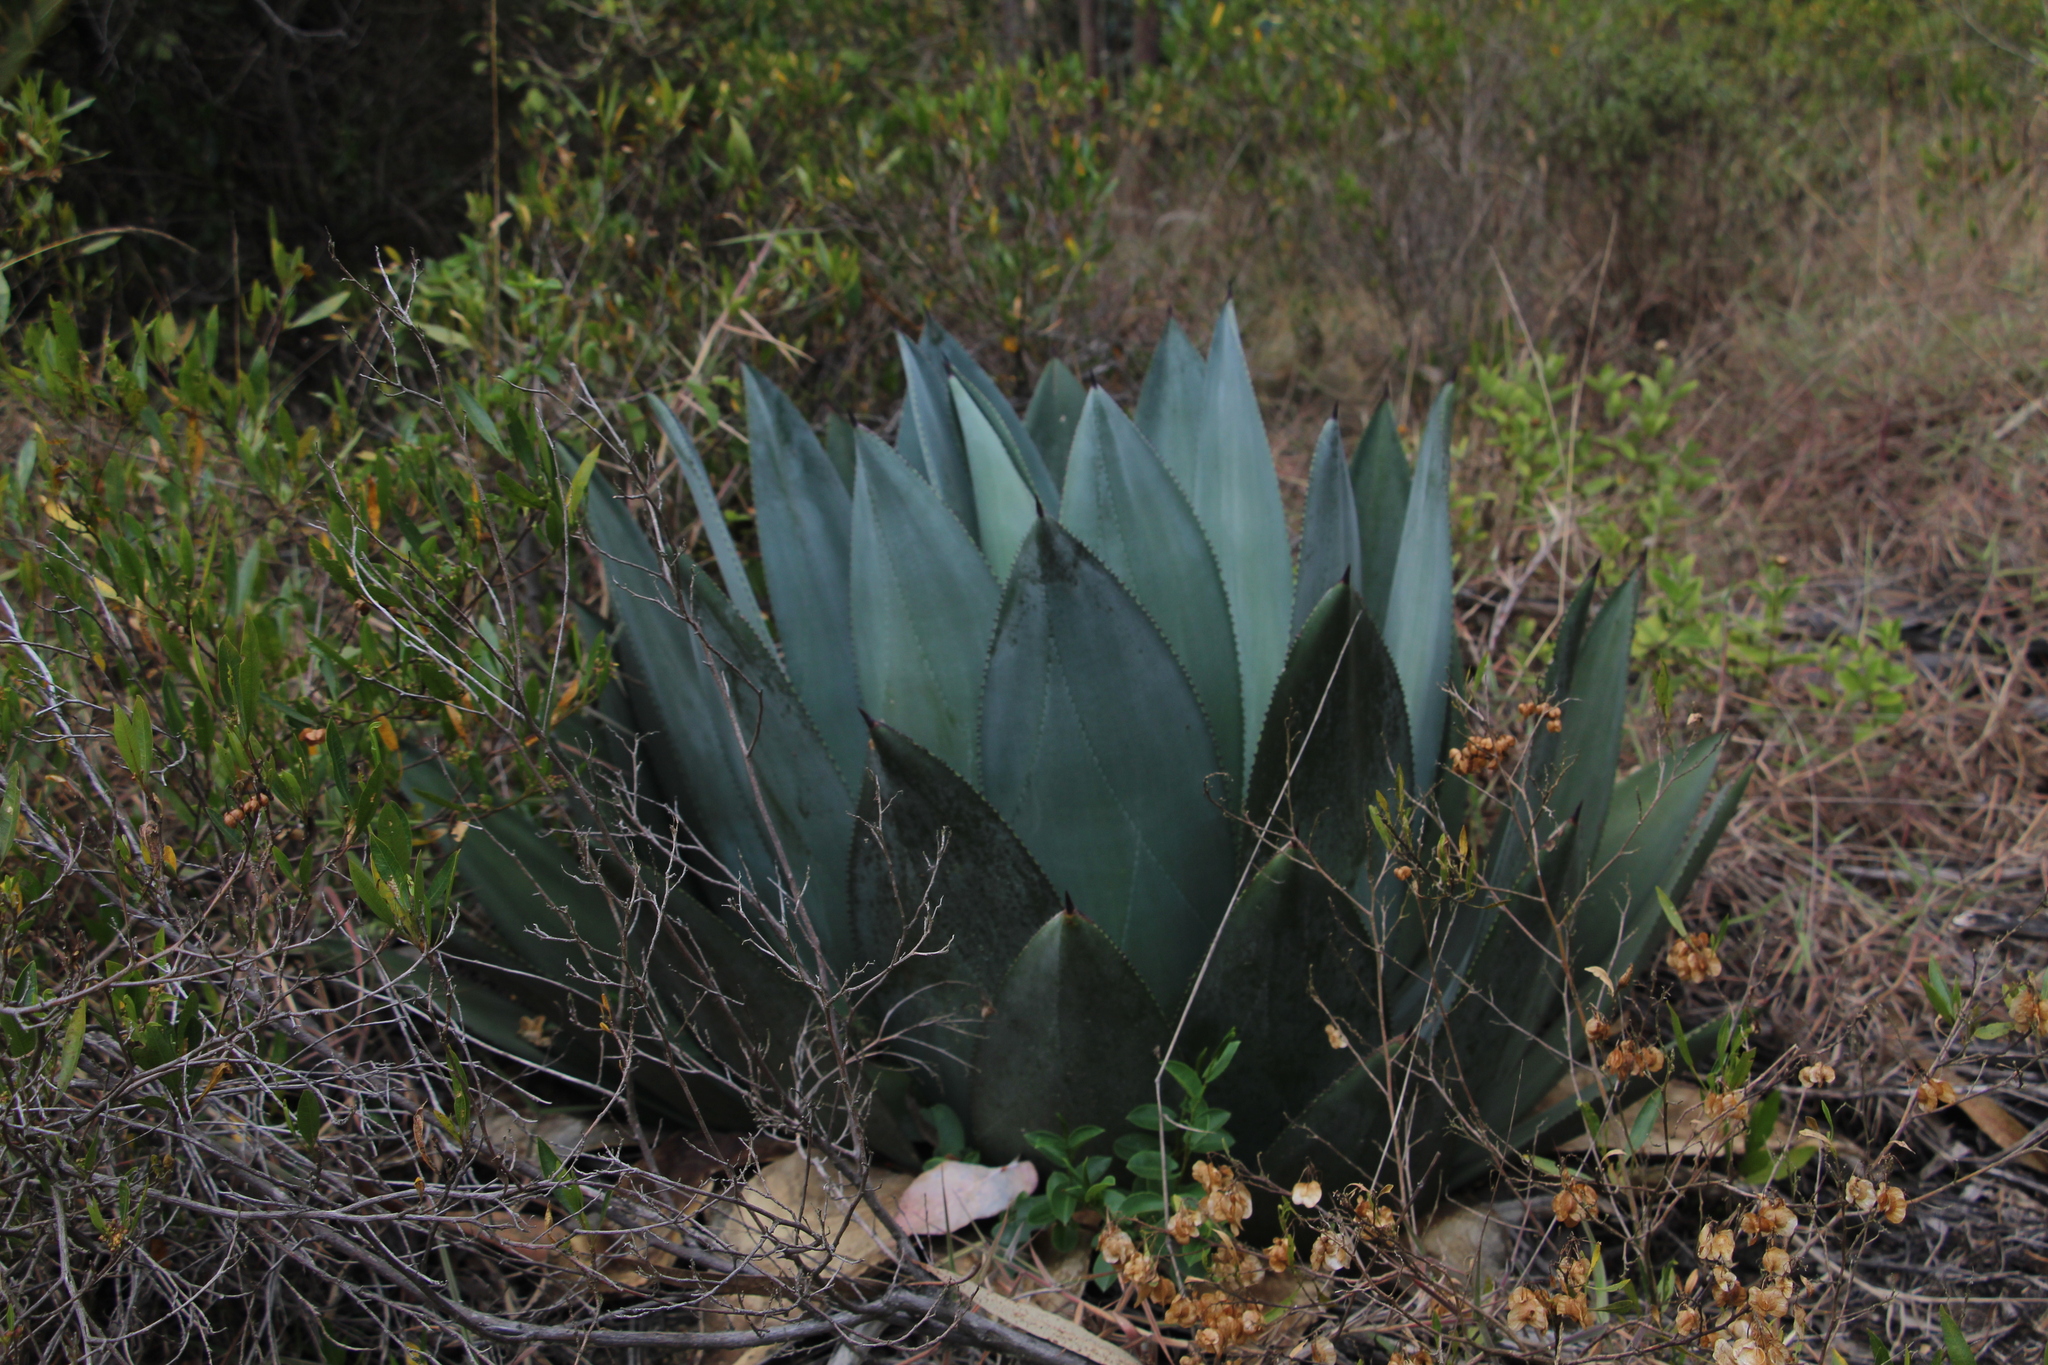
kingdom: Plantae
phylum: Tracheophyta
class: Liliopsida
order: Asparagales
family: Asparagaceae
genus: Agave
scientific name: Agave sylvesteriana
